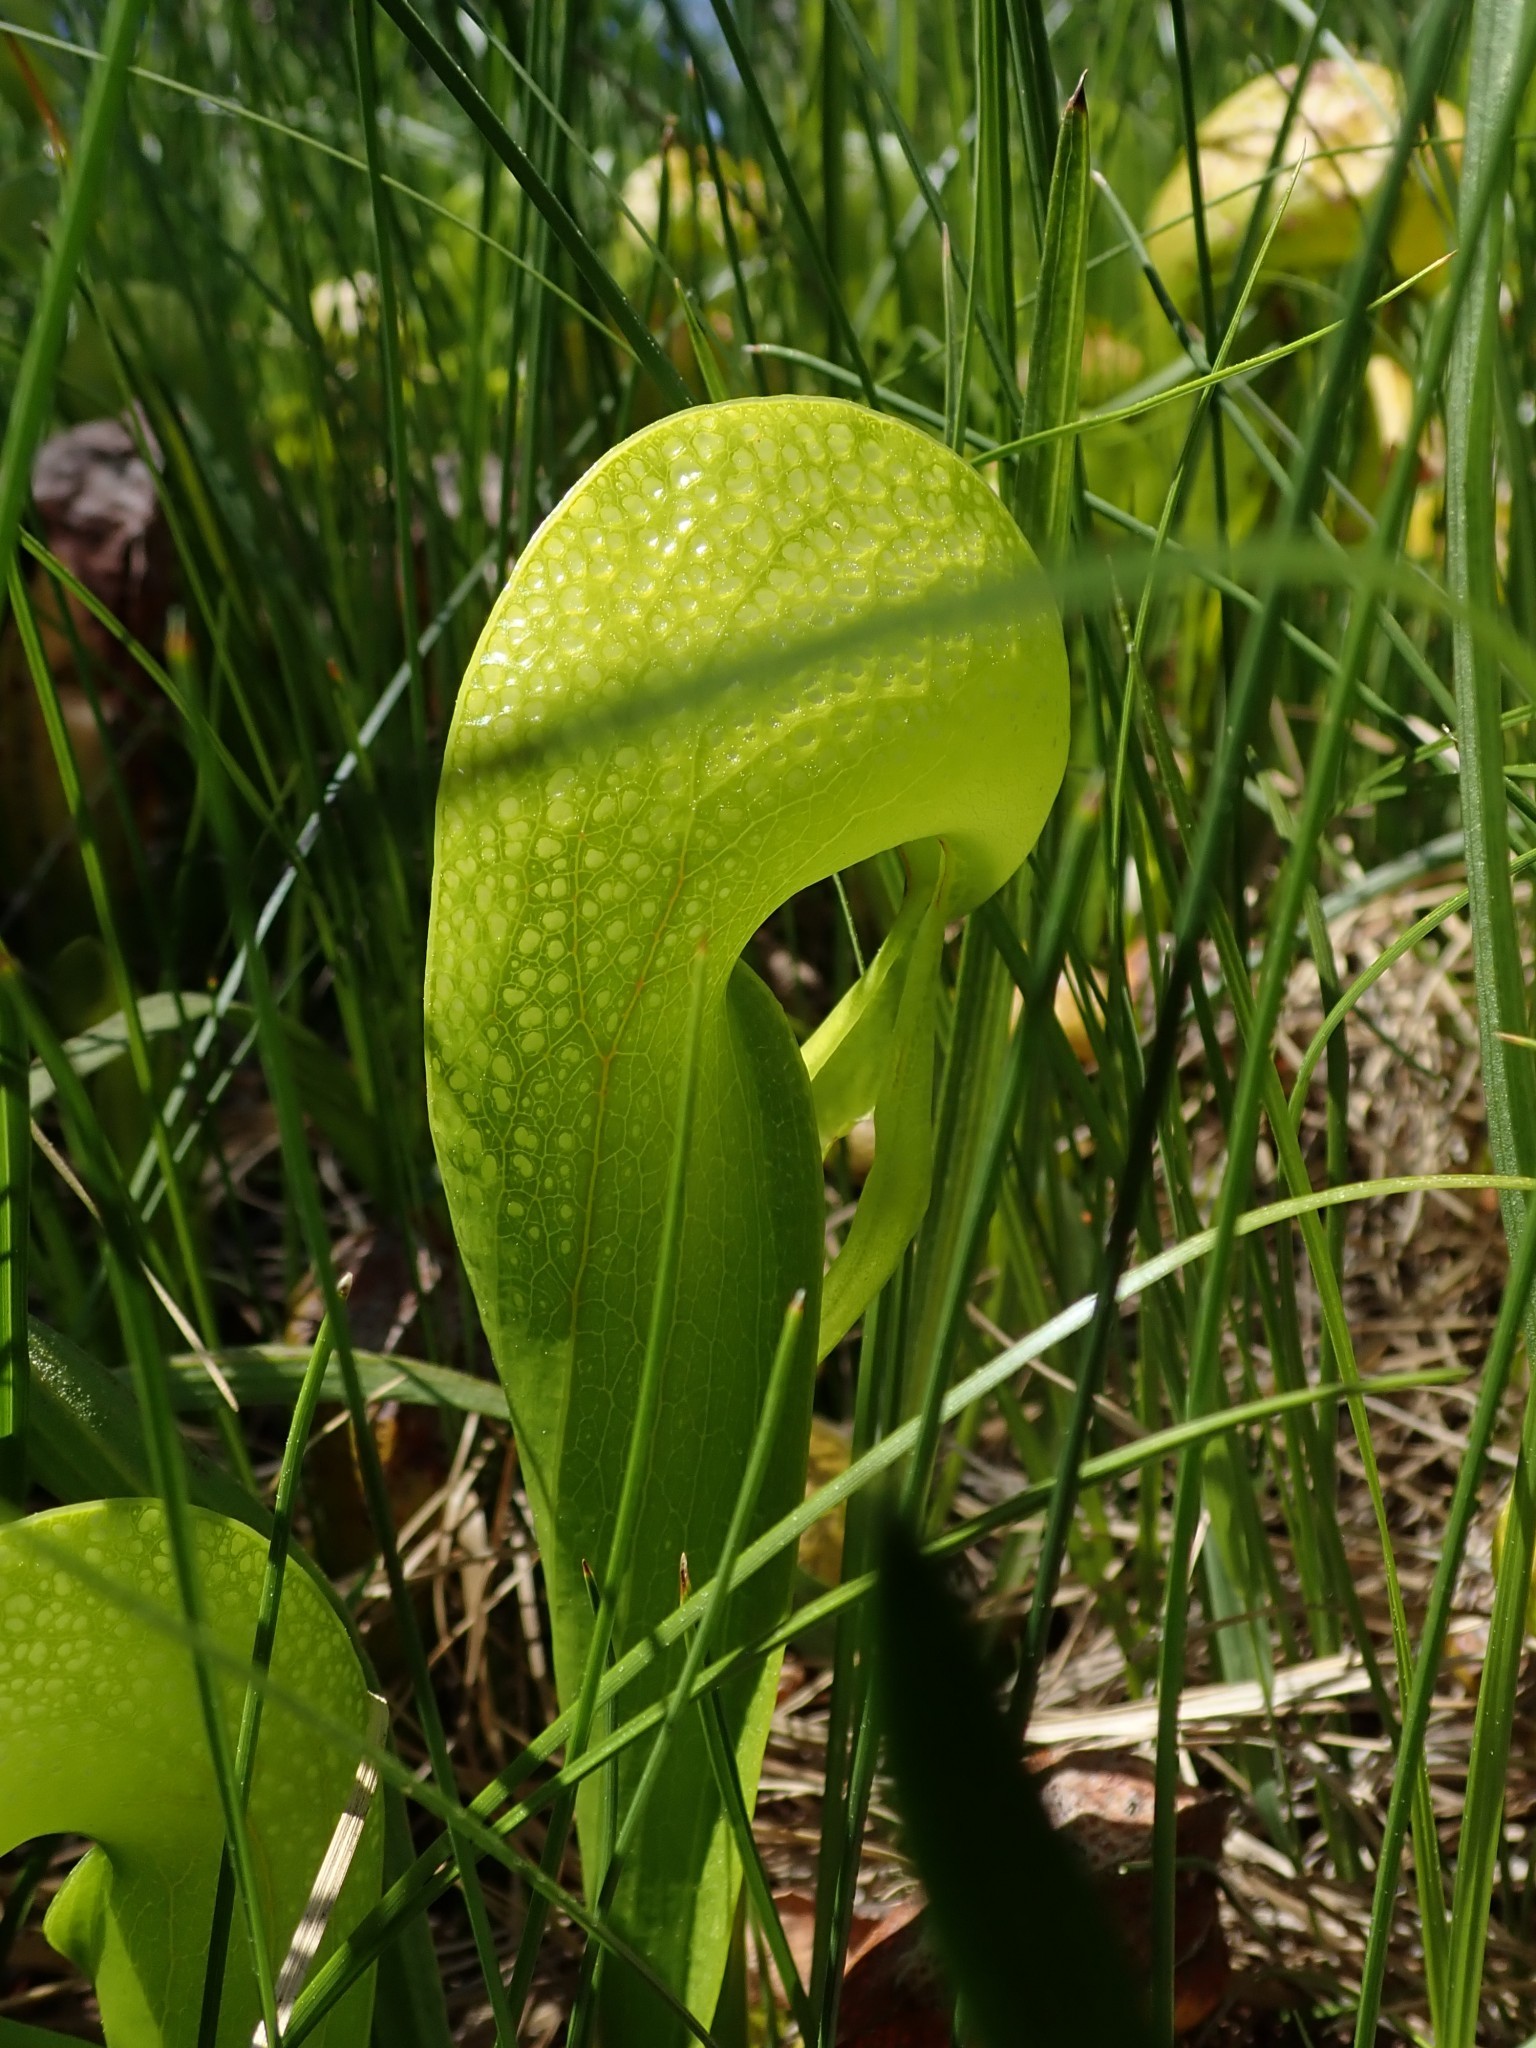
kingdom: Plantae
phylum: Tracheophyta
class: Magnoliopsida
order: Ericales
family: Sarraceniaceae
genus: Darlingtonia
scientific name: Darlingtonia californica
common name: California pitcher plant
